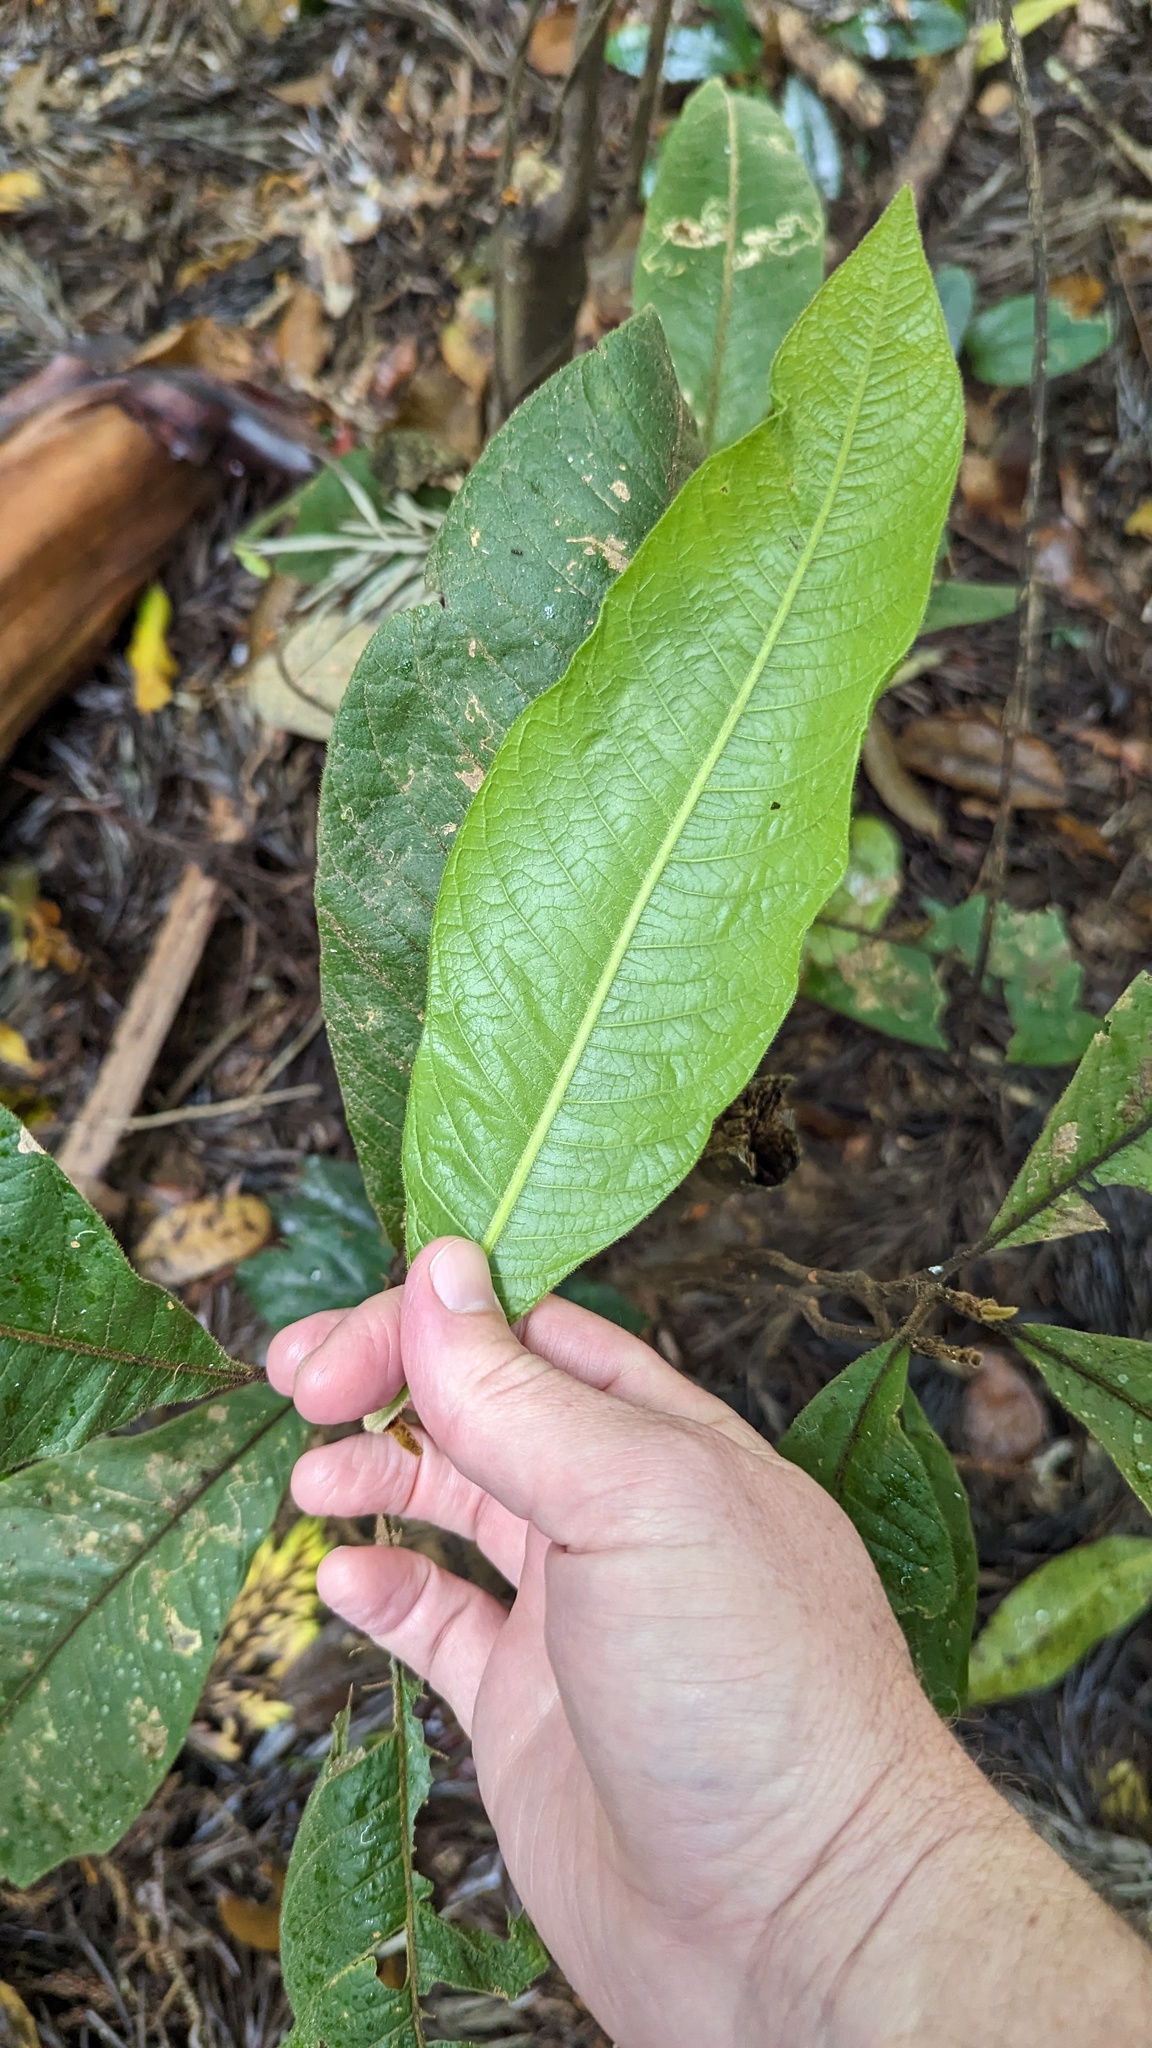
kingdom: Plantae
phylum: Tracheophyta
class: Magnoliopsida
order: Sapindales
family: Sapindaceae
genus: Diploglottis
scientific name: Diploglottis australis
